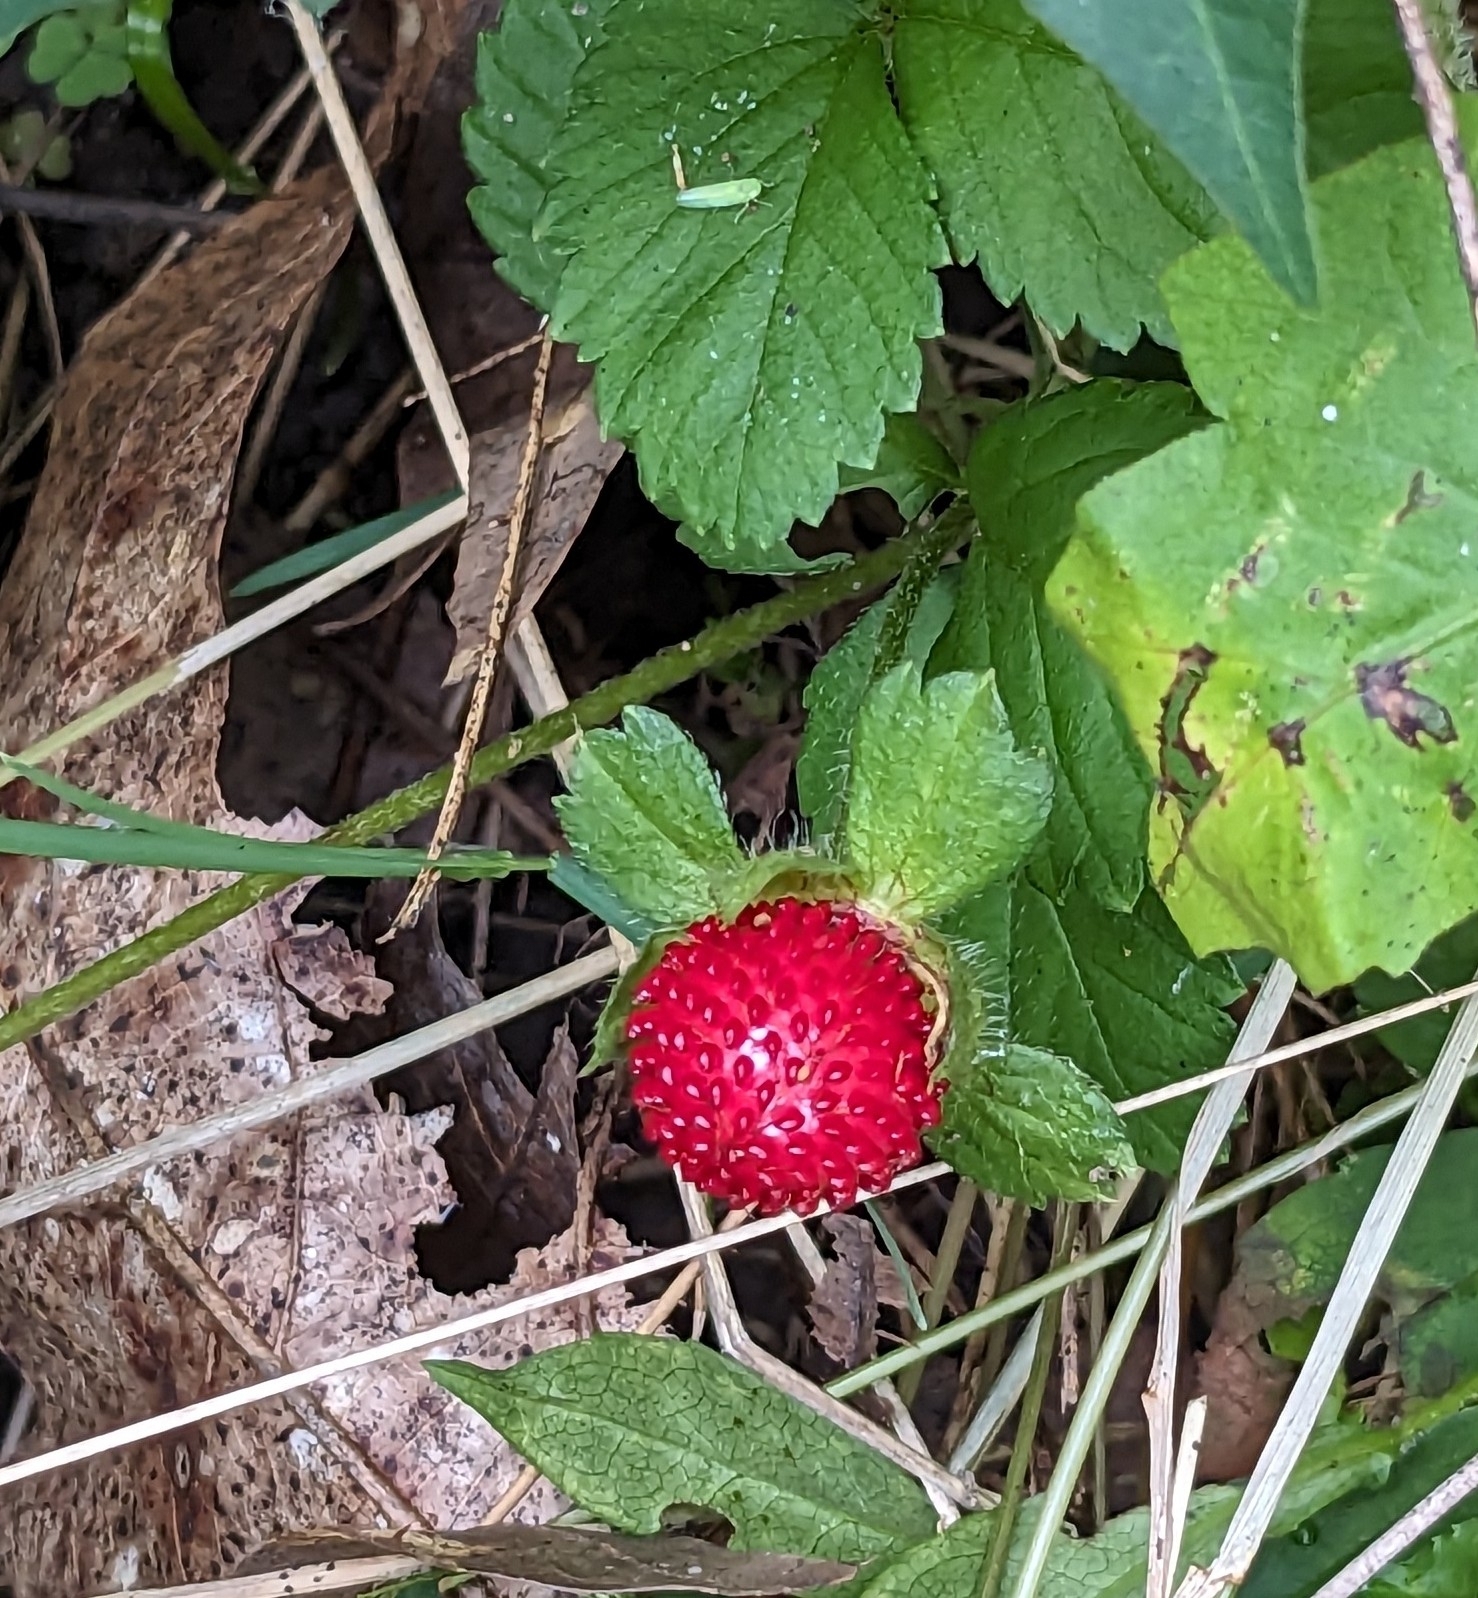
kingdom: Plantae
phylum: Tracheophyta
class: Magnoliopsida
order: Rosales
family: Rosaceae
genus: Potentilla
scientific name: Potentilla indica
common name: Yellow-flowered strawberry
